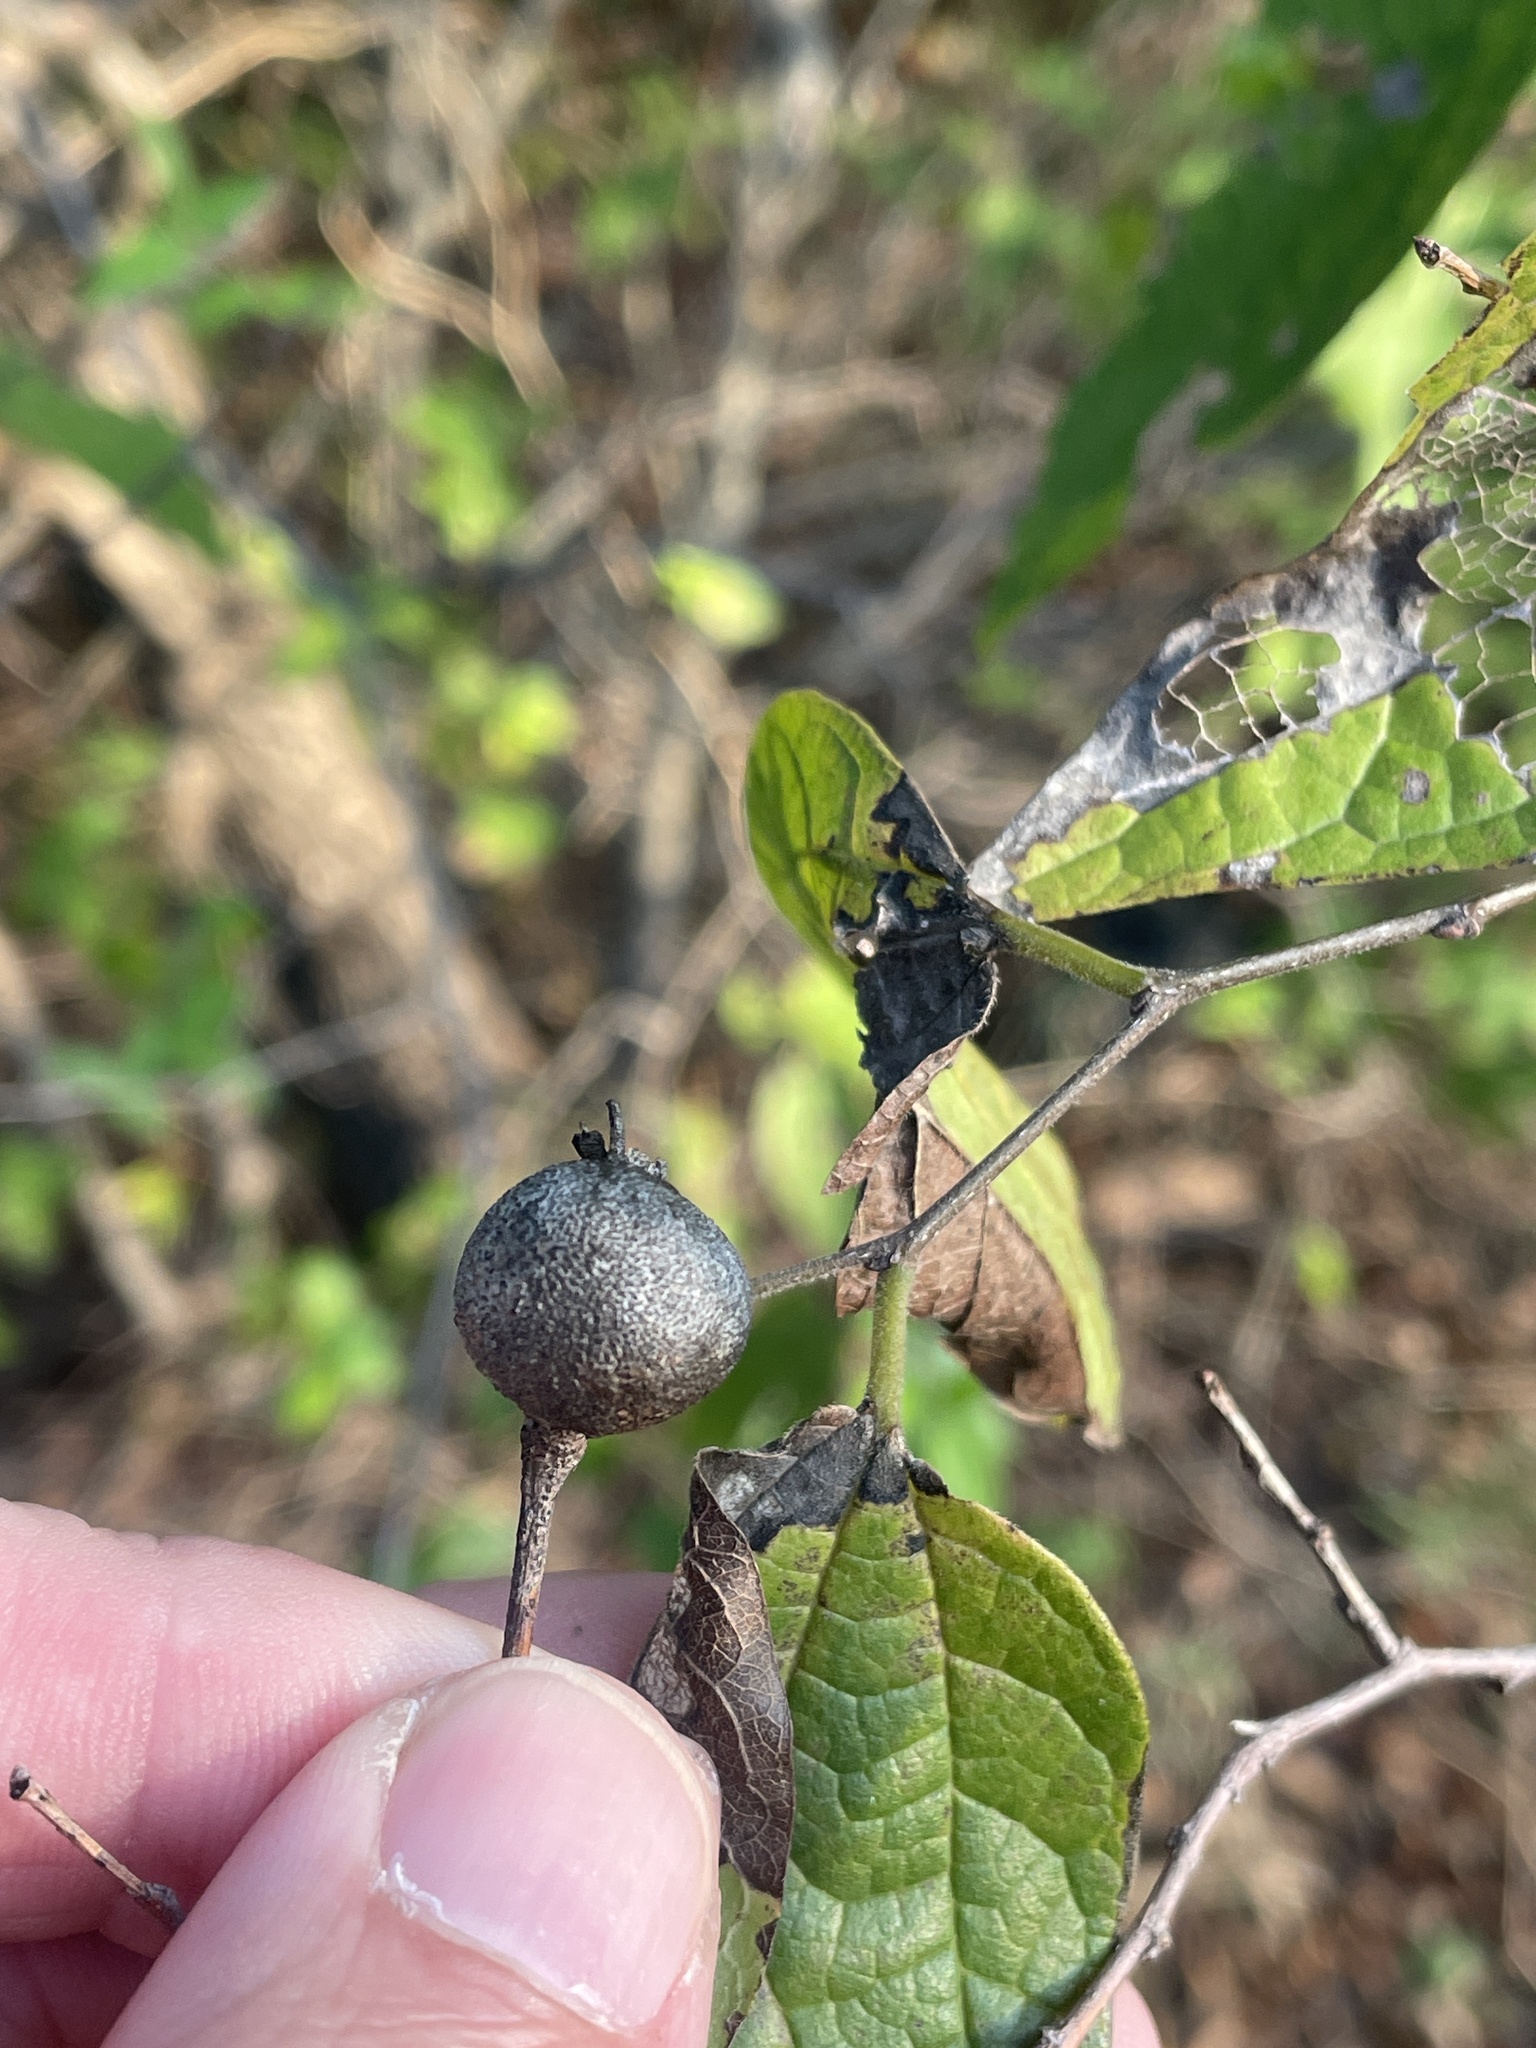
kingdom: Animalia
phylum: Arthropoda
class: Insecta
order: Hemiptera
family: Aphalaridae
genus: Pachypsylla
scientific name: Pachypsylla venusta
